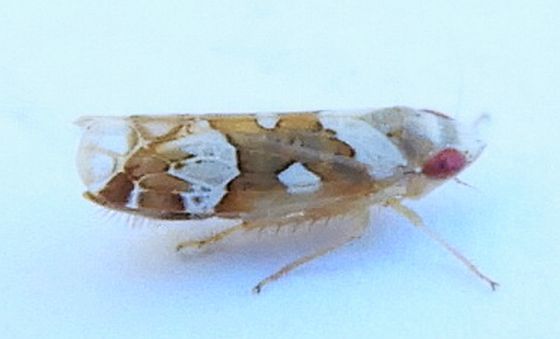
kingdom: Animalia
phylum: Arthropoda
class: Insecta
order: Hemiptera
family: Cicadellidae
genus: Sanctanus
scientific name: Sanctanus balli
